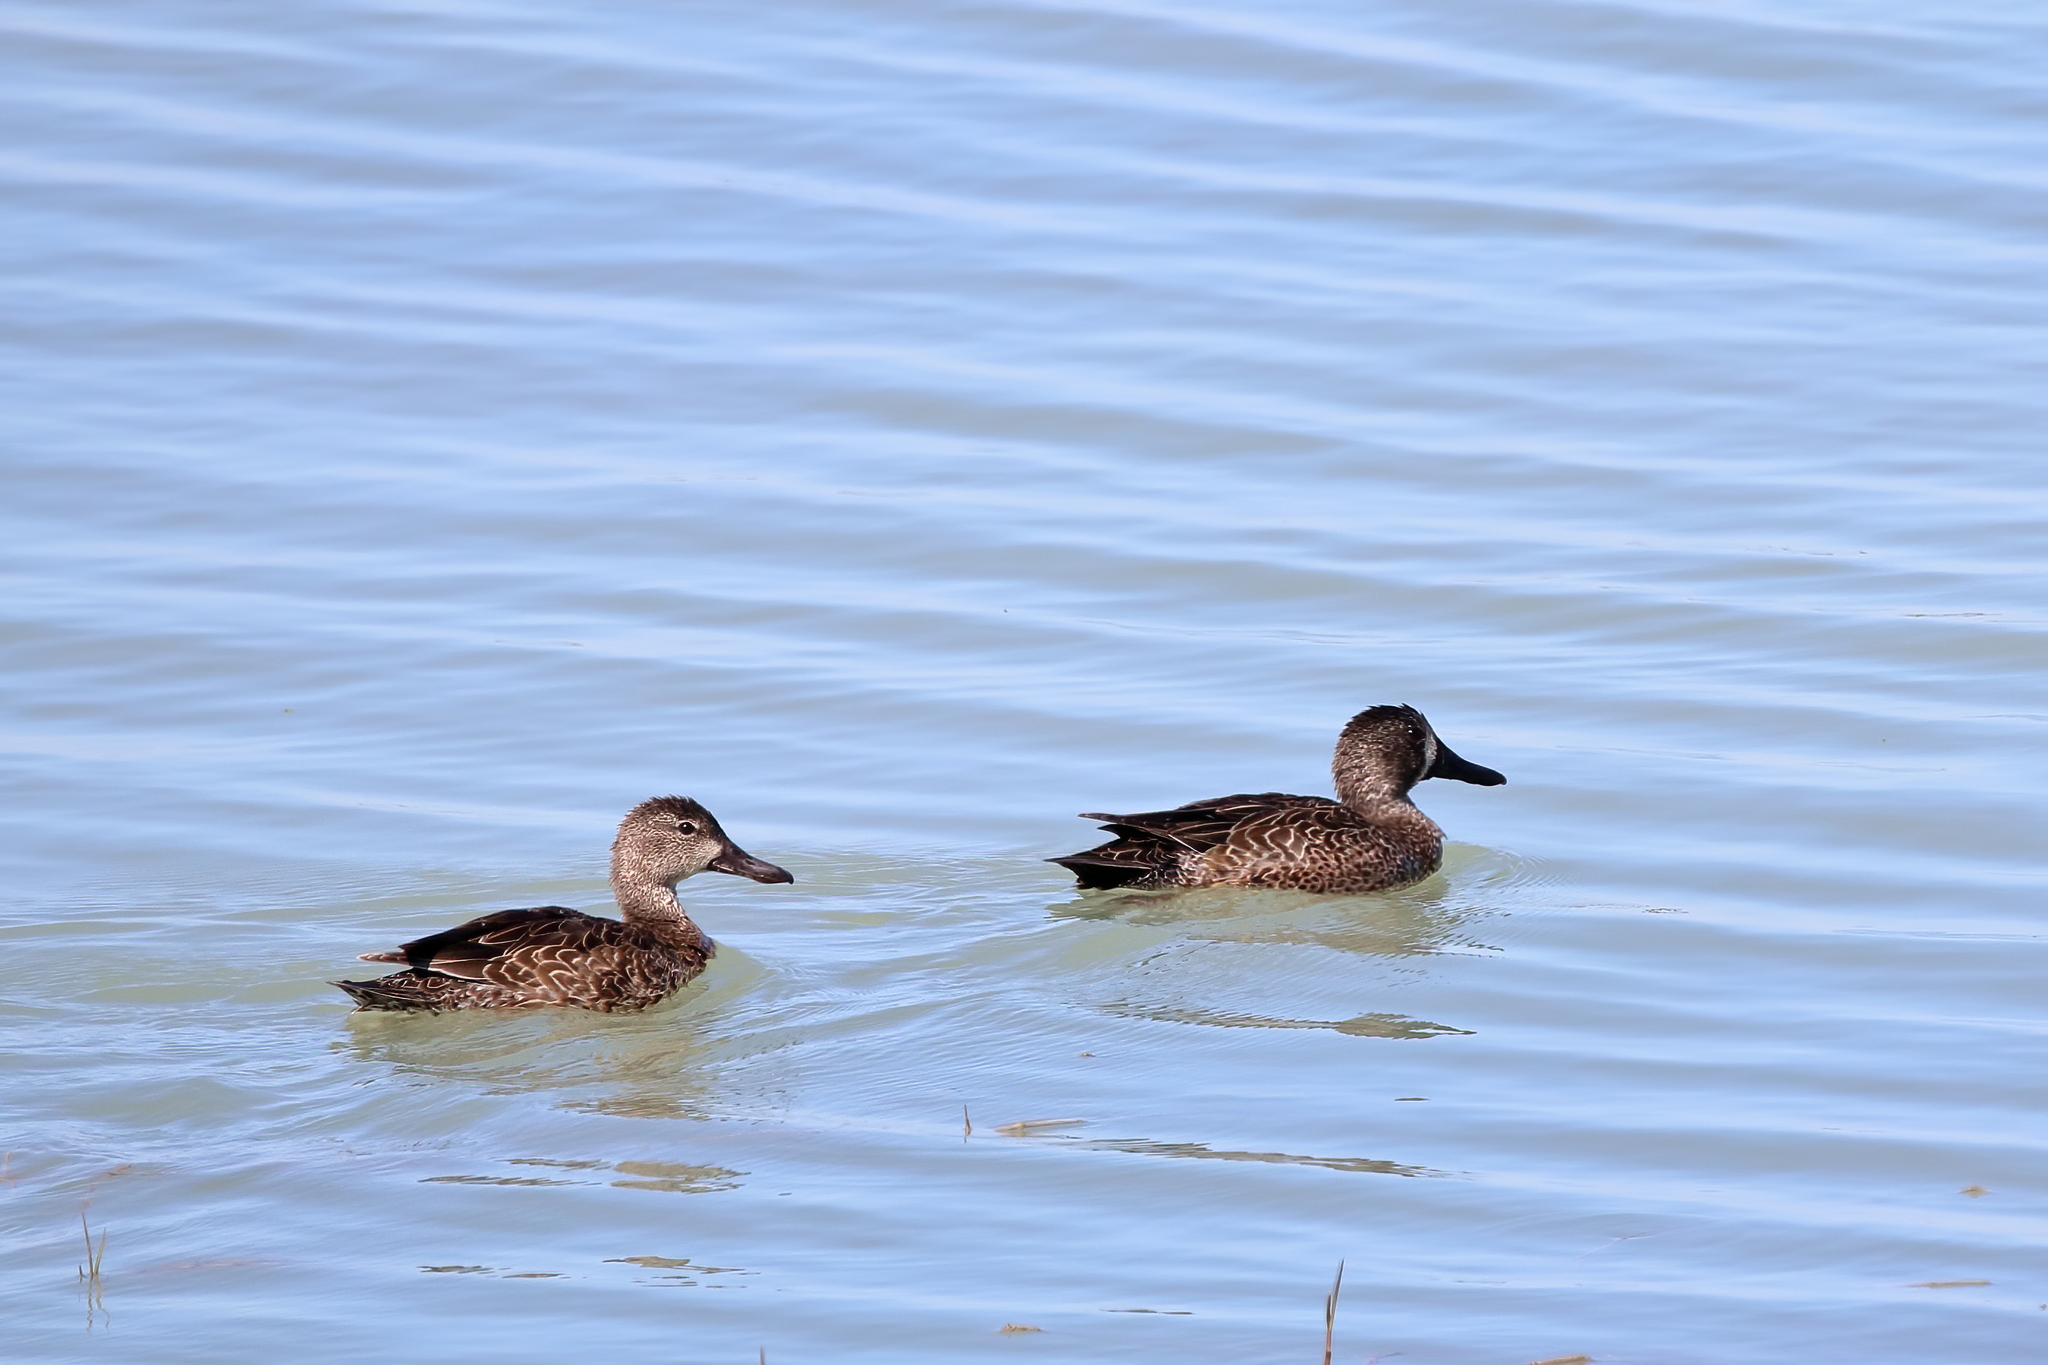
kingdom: Animalia
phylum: Chordata
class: Aves
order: Anseriformes
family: Anatidae
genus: Spatula
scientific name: Spatula discors
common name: Blue-winged teal
